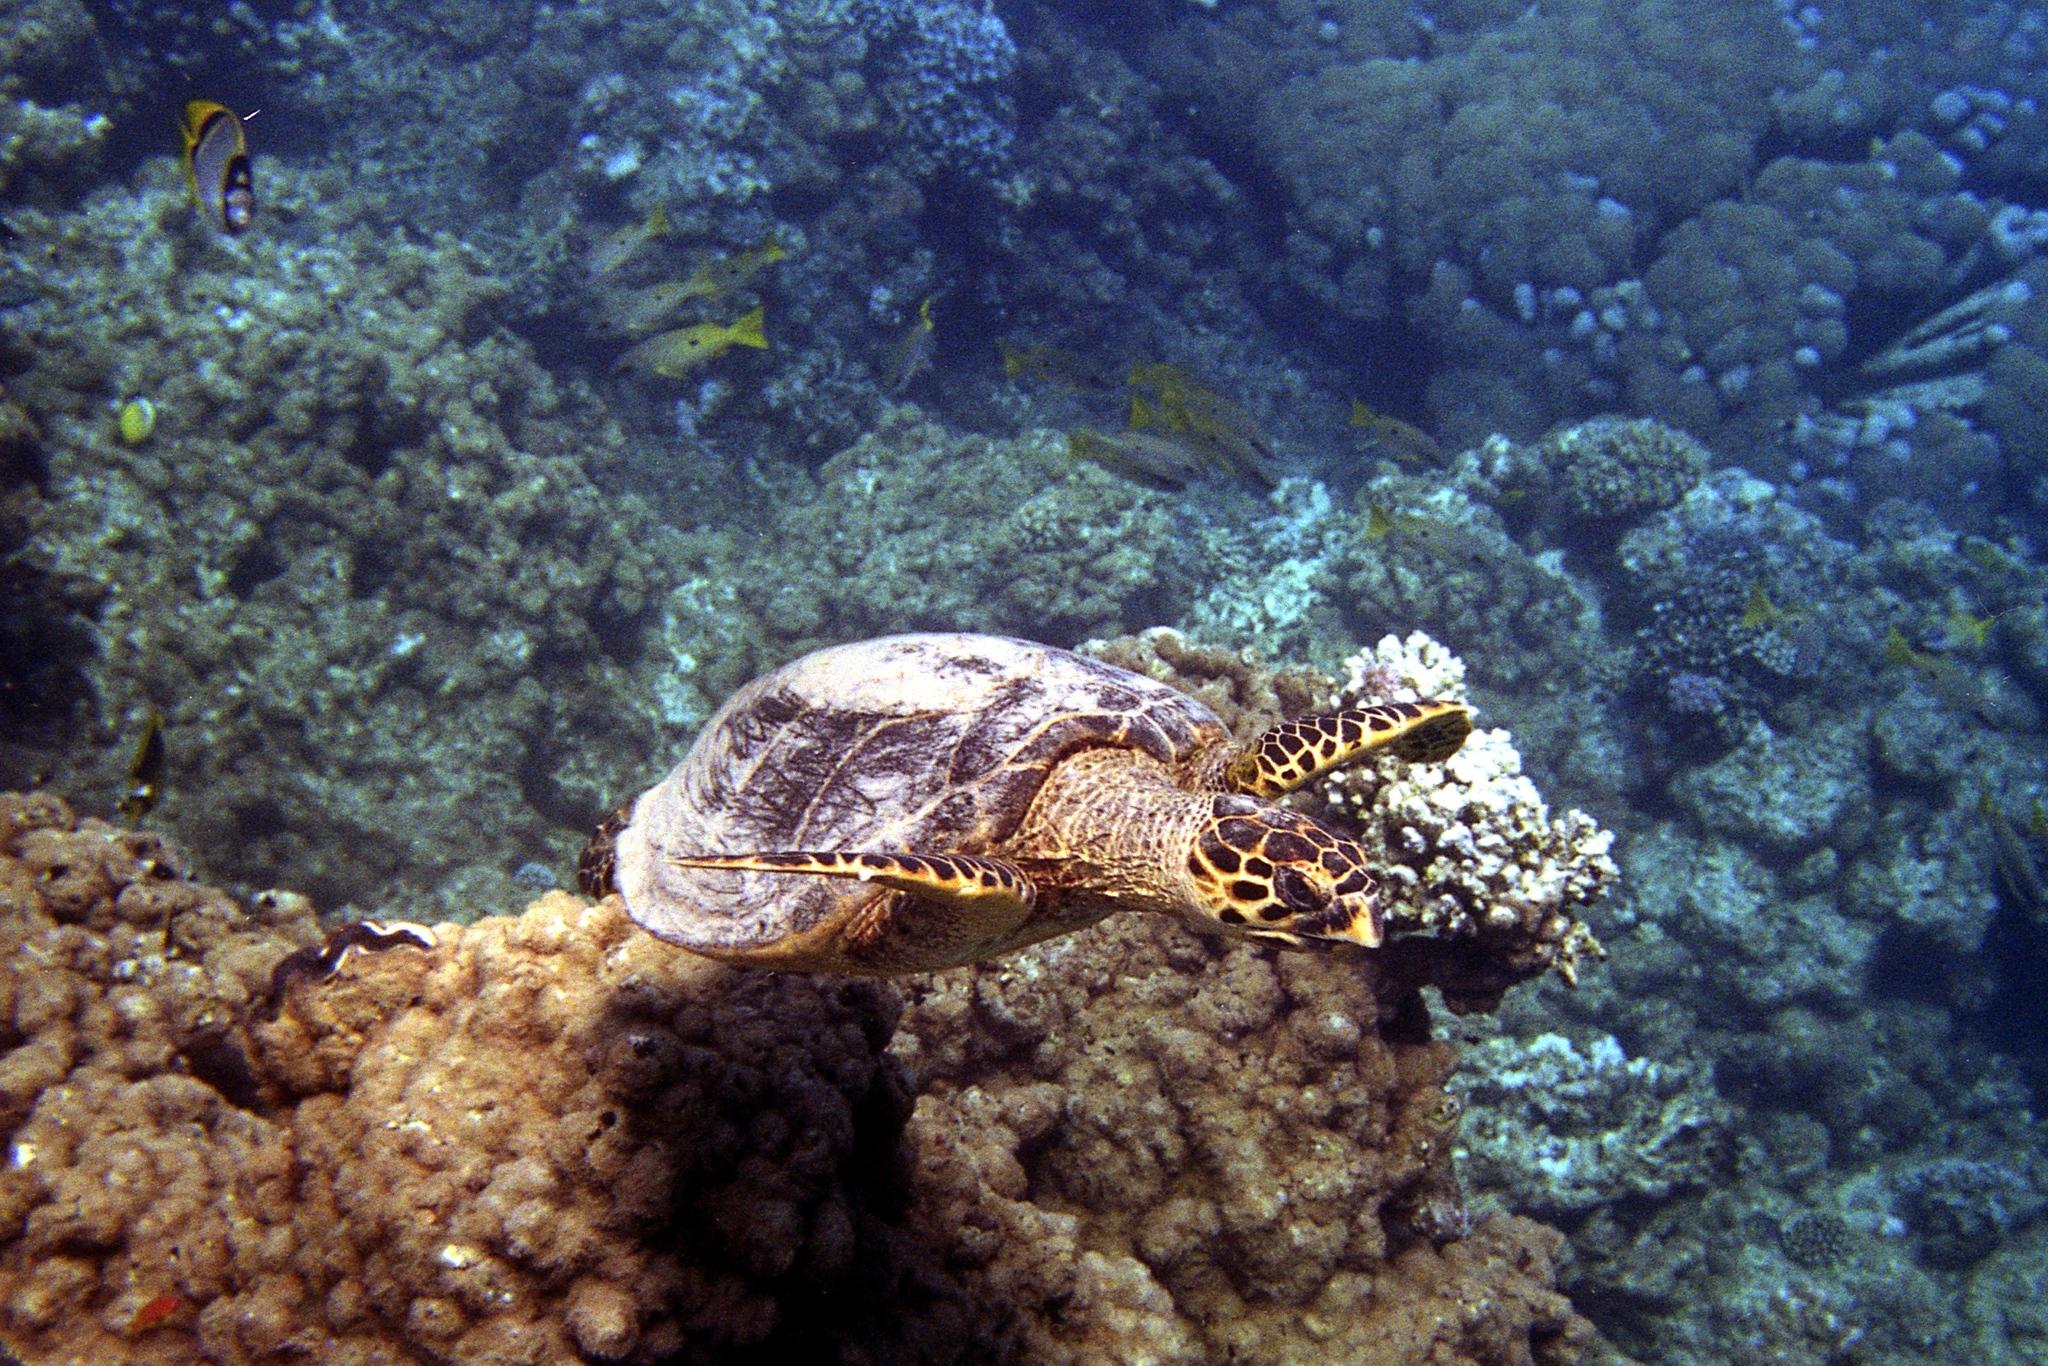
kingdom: Animalia
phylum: Chordata
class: Testudines
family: Cheloniidae
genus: Eretmochelys
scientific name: Eretmochelys imbricata
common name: Hawksbill turtle
